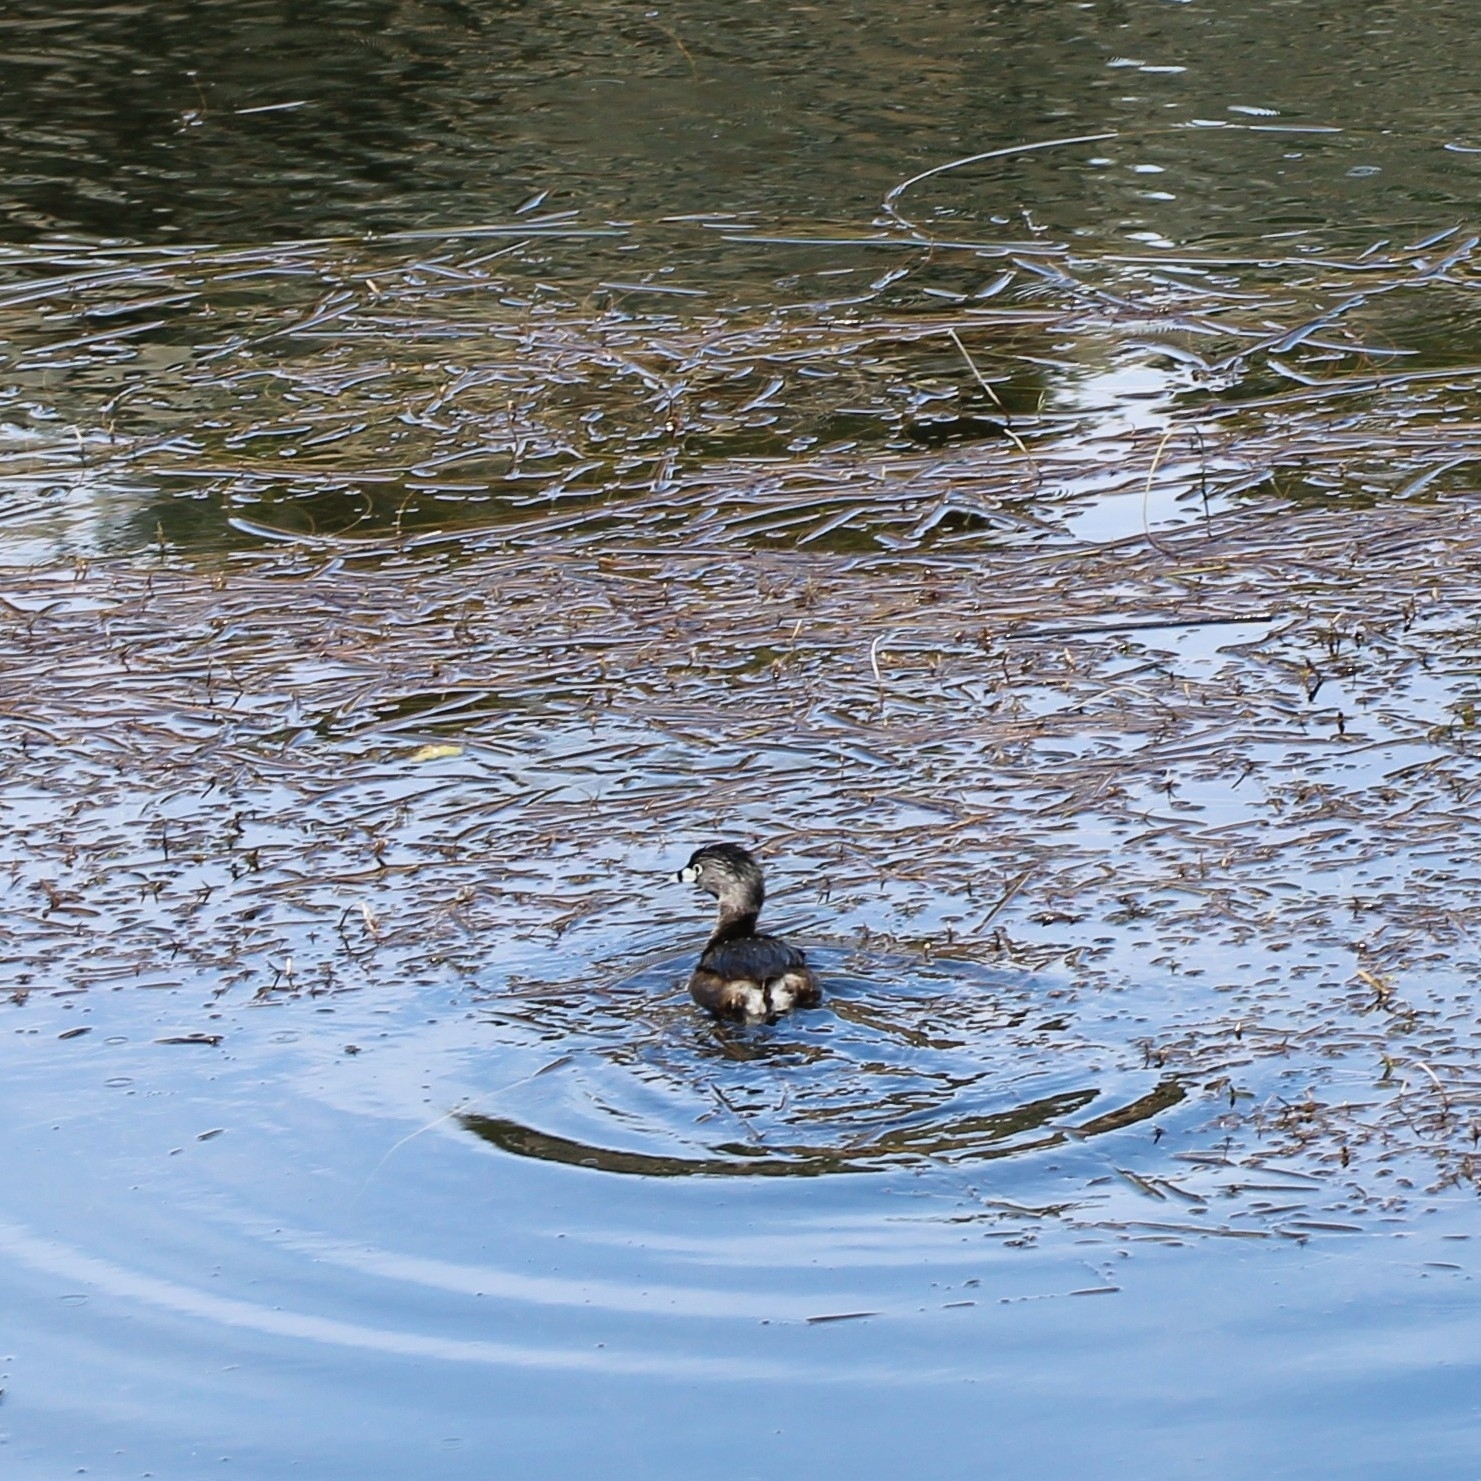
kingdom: Animalia
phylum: Chordata
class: Aves
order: Podicipediformes
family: Podicipedidae
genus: Podilymbus
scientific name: Podilymbus podiceps
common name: Pied-billed grebe
